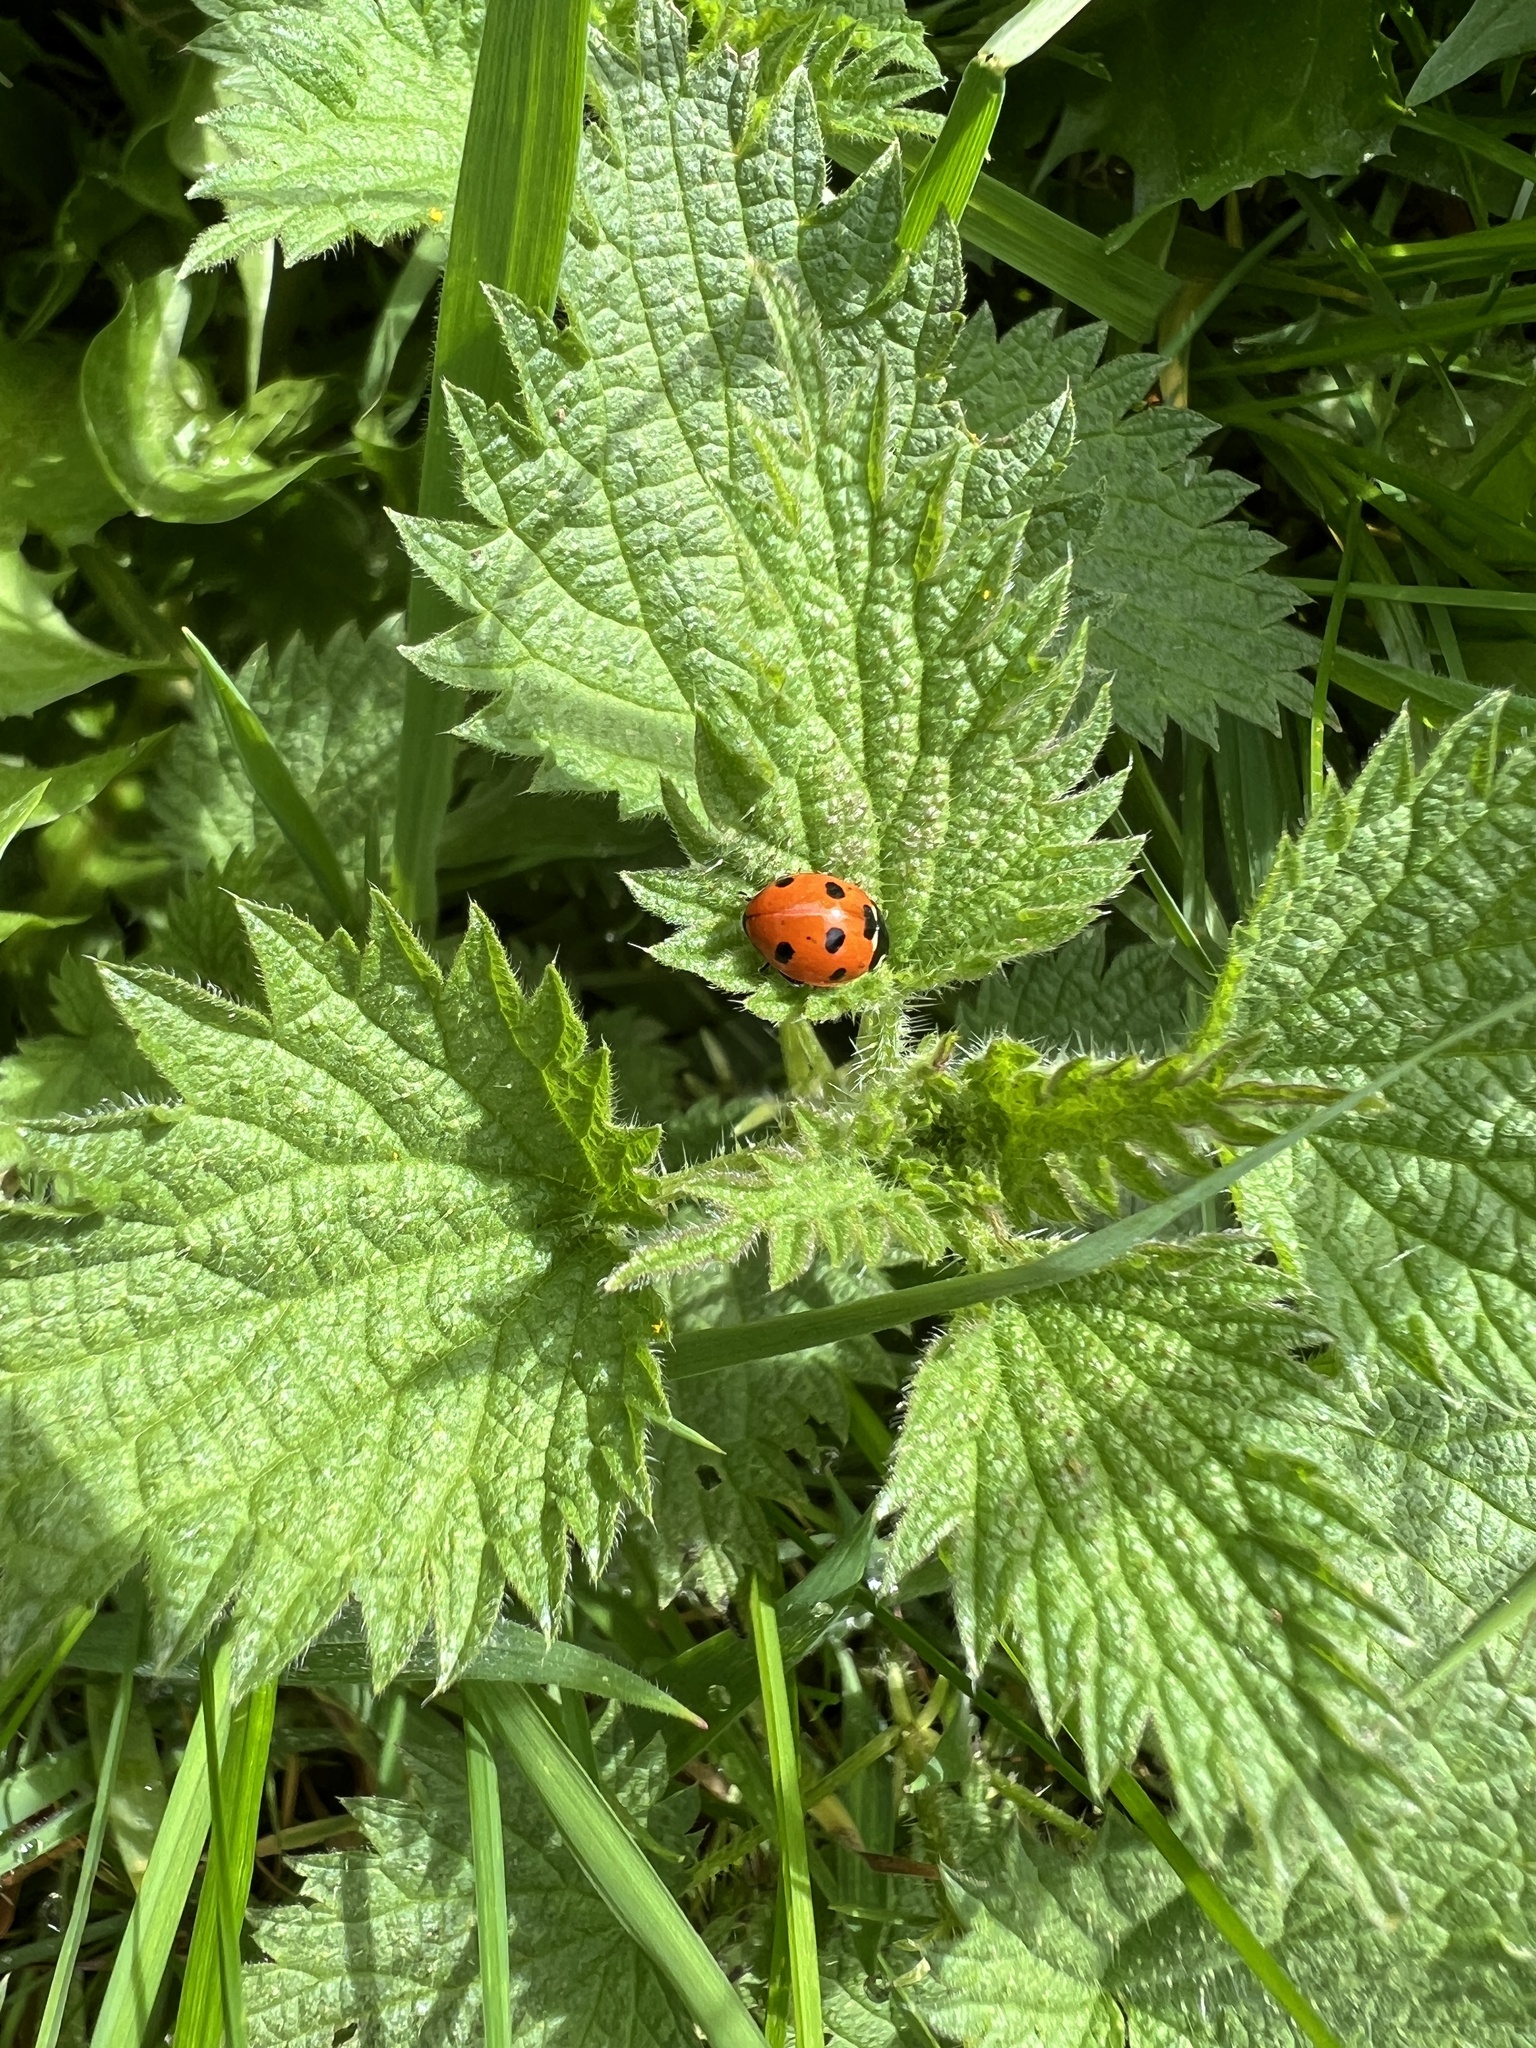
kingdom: Animalia
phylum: Arthropoda
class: Insecta
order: Coleoptera
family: Coccinellidae
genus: Coccinella
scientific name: Coccinella septempunctata
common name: Sevenspotted lady beetle
